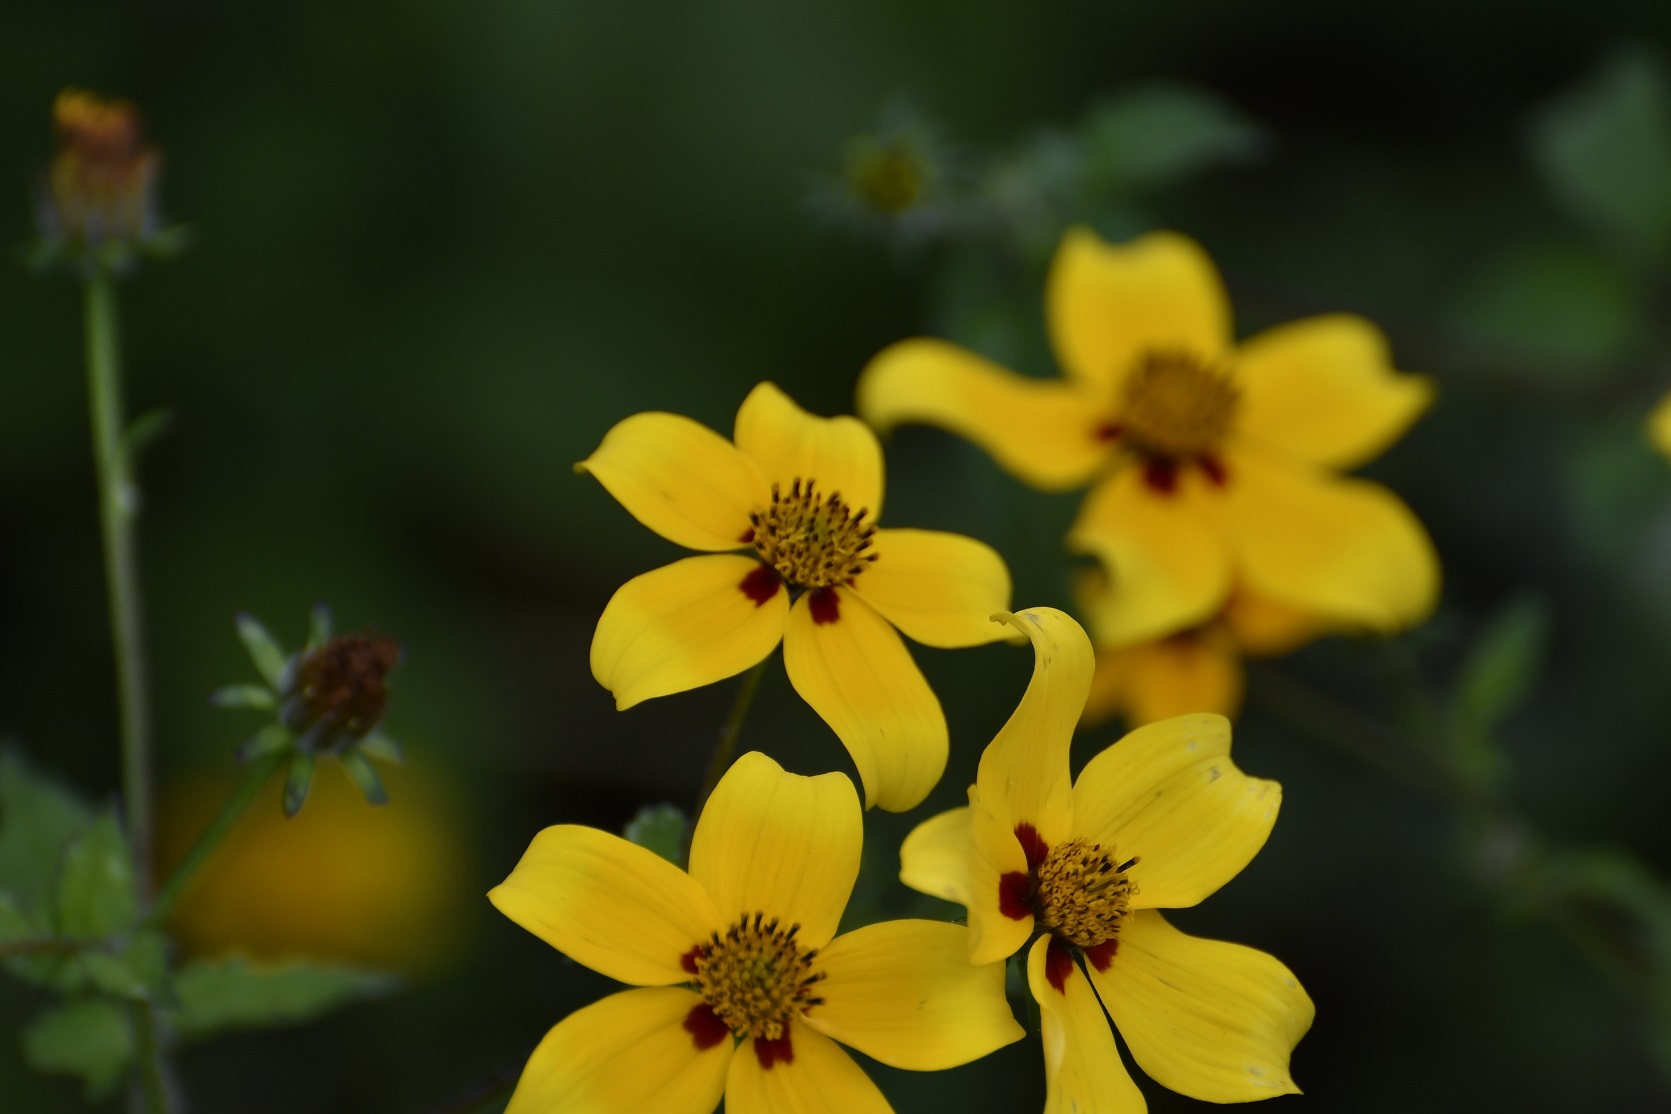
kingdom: Plantae
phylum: Tracheophyta
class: Magnoliopsida
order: Asterales
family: Asteraceae
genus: Bidens
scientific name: Bidens bicolor
